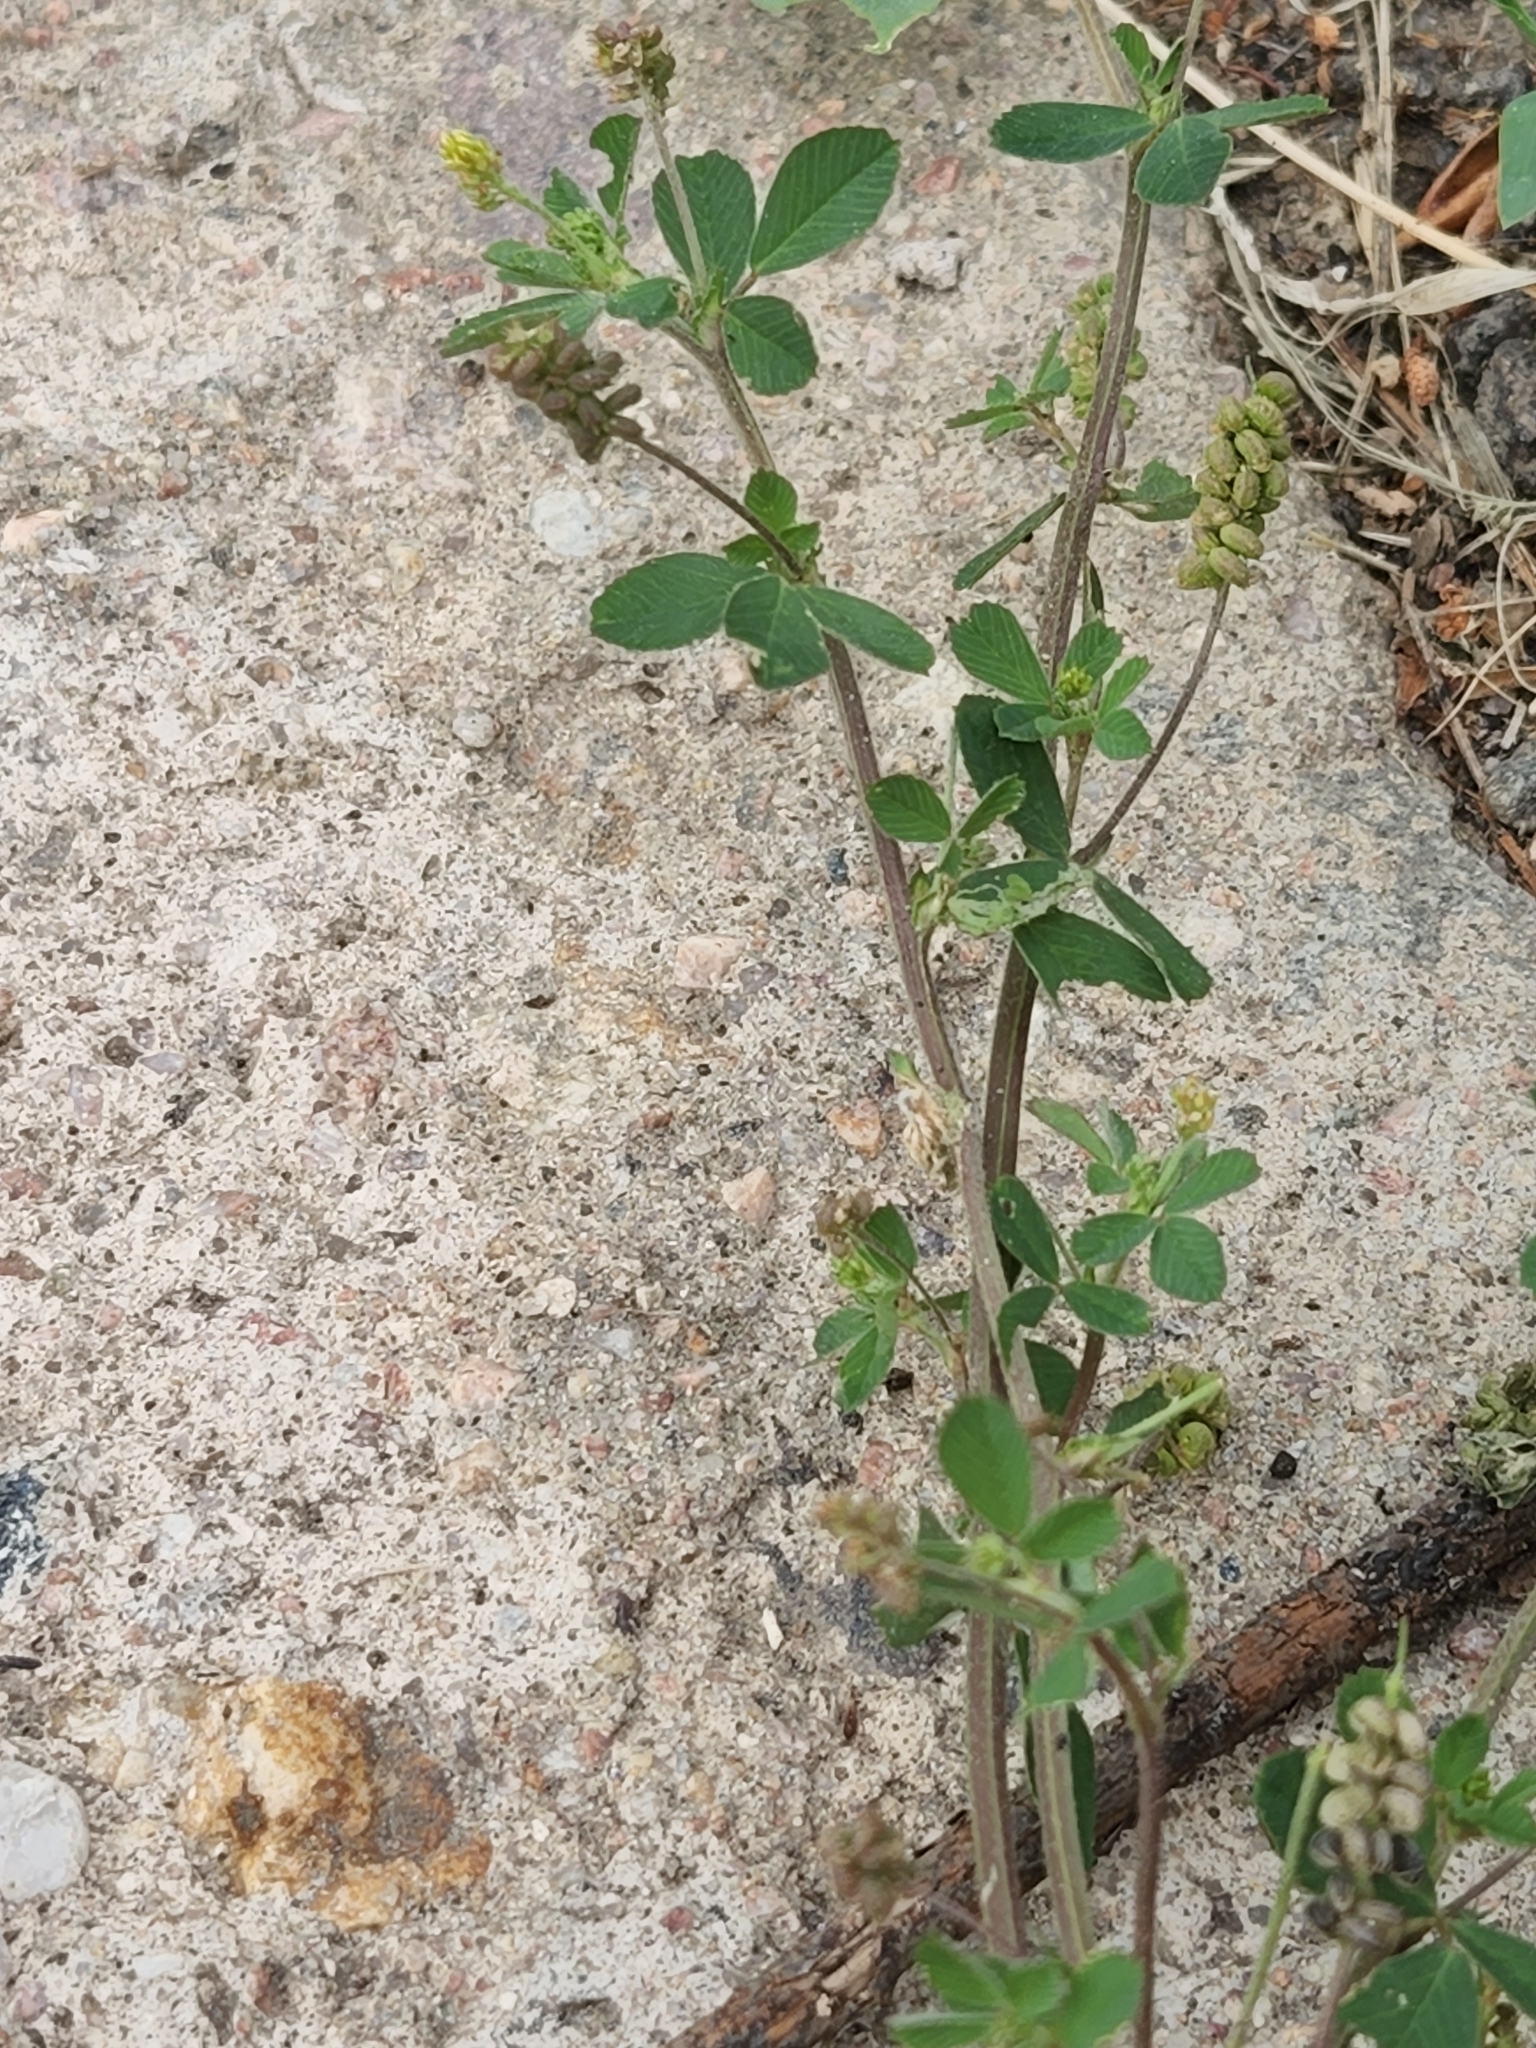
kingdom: Plantae
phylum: Tracheophyta
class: Magnoliopsida
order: Fabales
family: Fabaceae
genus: Medicago
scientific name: Medicago lupulina
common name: Black medick
